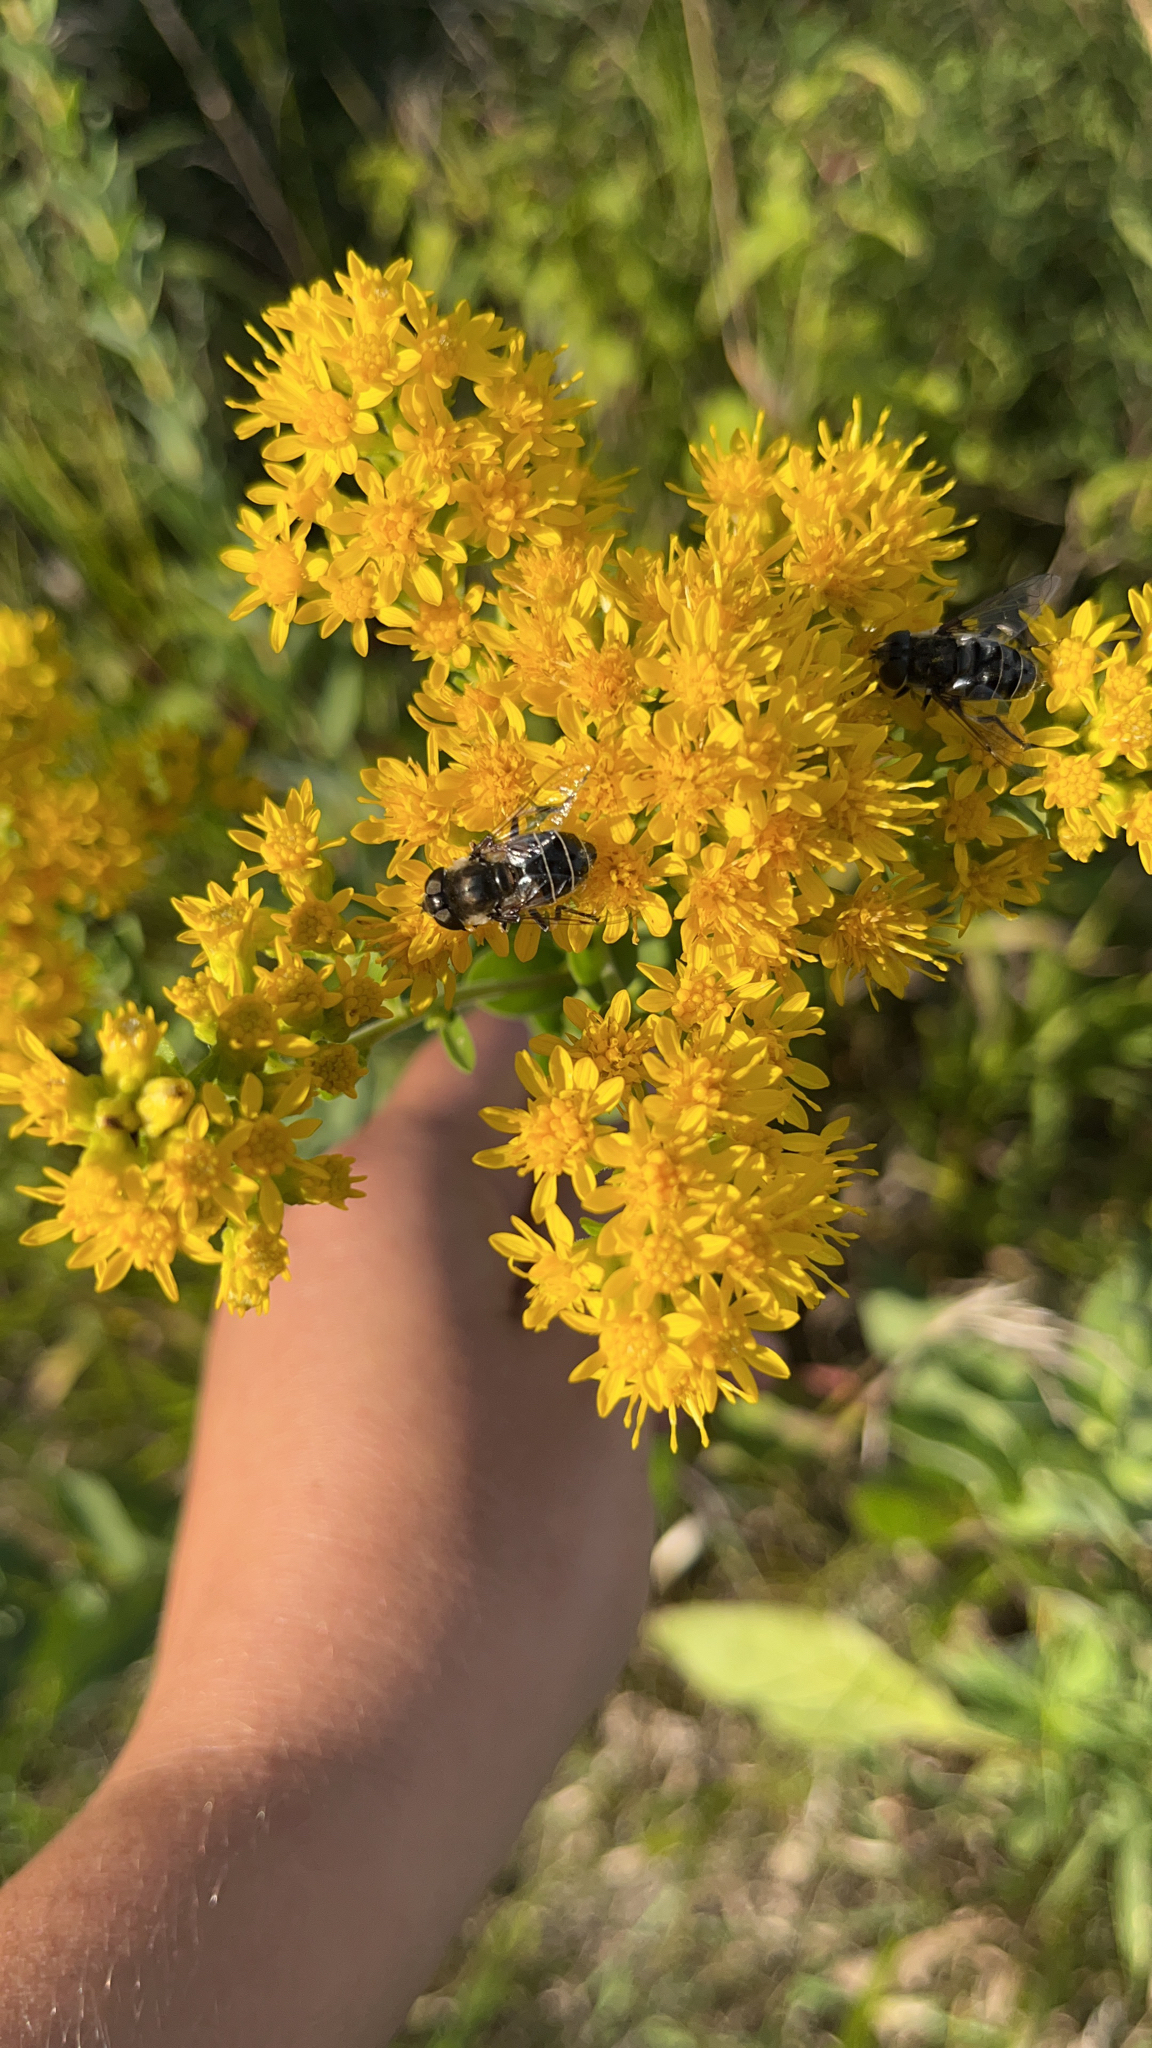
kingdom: Animalia
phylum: Arthropoda
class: Insecta
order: Diptera
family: Syrphidae
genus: Eristalis
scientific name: Eristalis dimidiata
